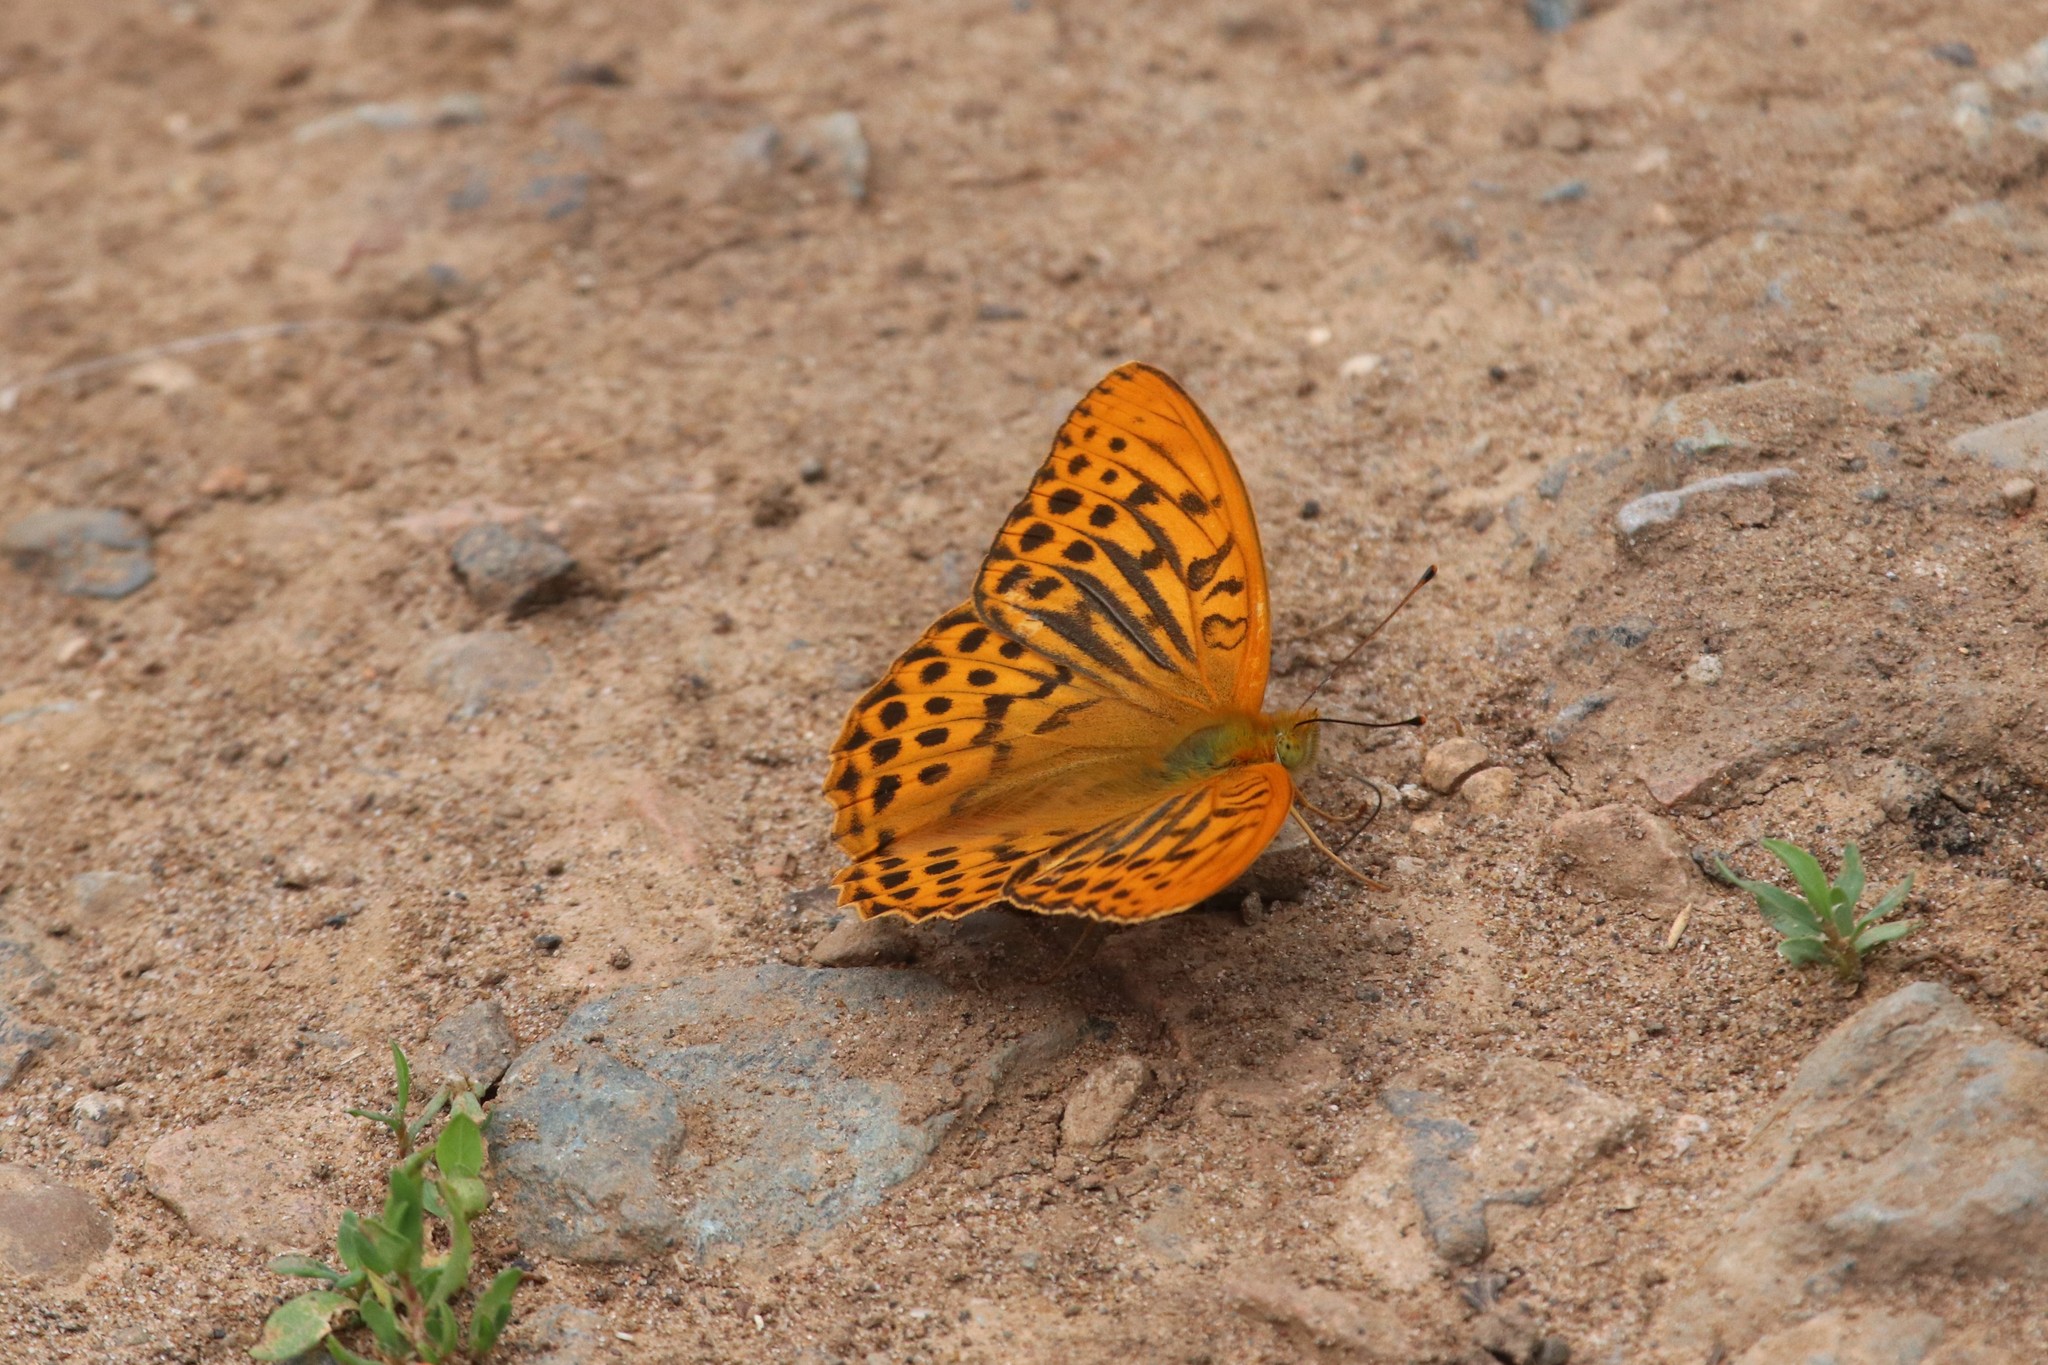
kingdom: Animalia
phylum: Arthropoda
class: Insecta
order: Lepidoptera
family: Nymphalidae
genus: Argynnis
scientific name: Argynnis paphia
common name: Silver-washed fritillary
